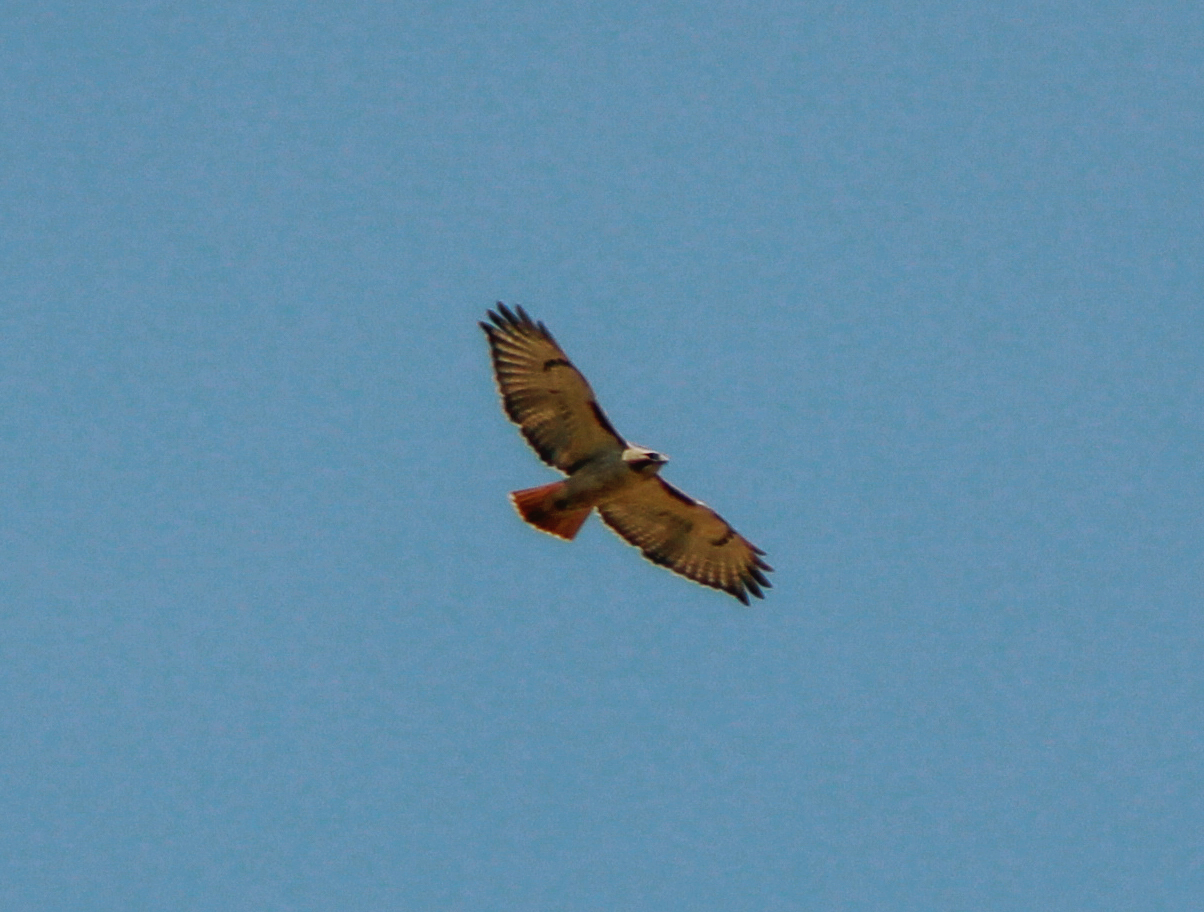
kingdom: Animalia
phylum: Chordata
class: Aves
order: Accipitriformes
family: Accipitridae
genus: Buteo
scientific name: Buteo jamaicensis
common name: Red-tailed hawk
